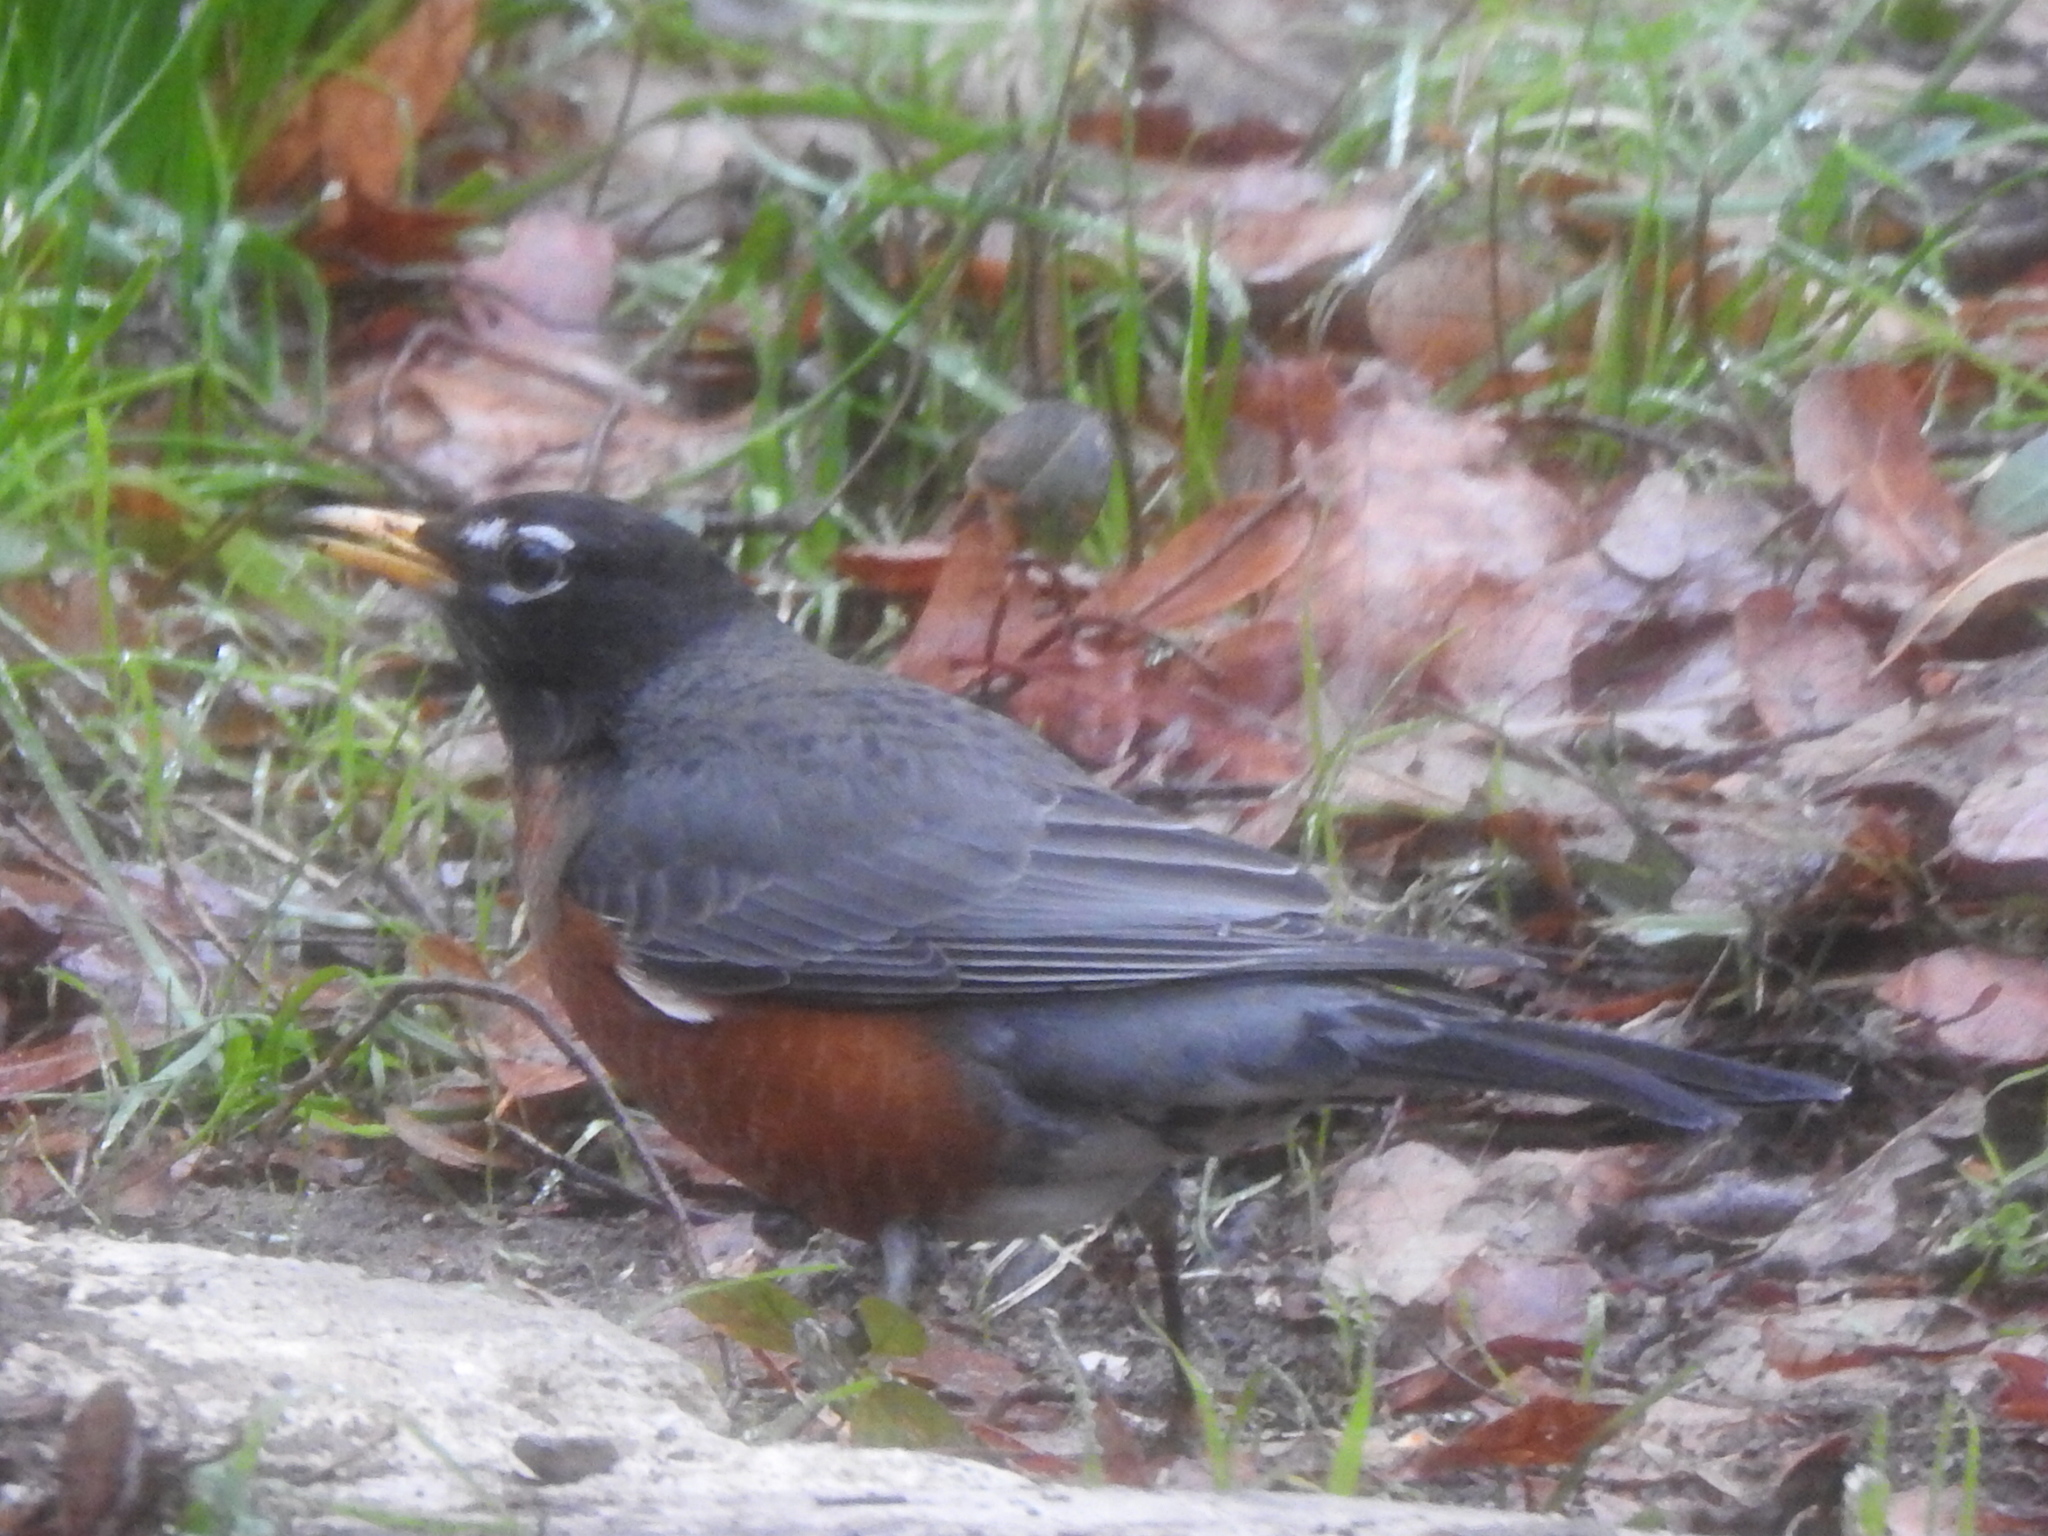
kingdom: Animalia
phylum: Chordata
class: Aves
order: Passeriformes
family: Turdidae
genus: Turdus
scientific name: Turdus migratorius
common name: American robin
